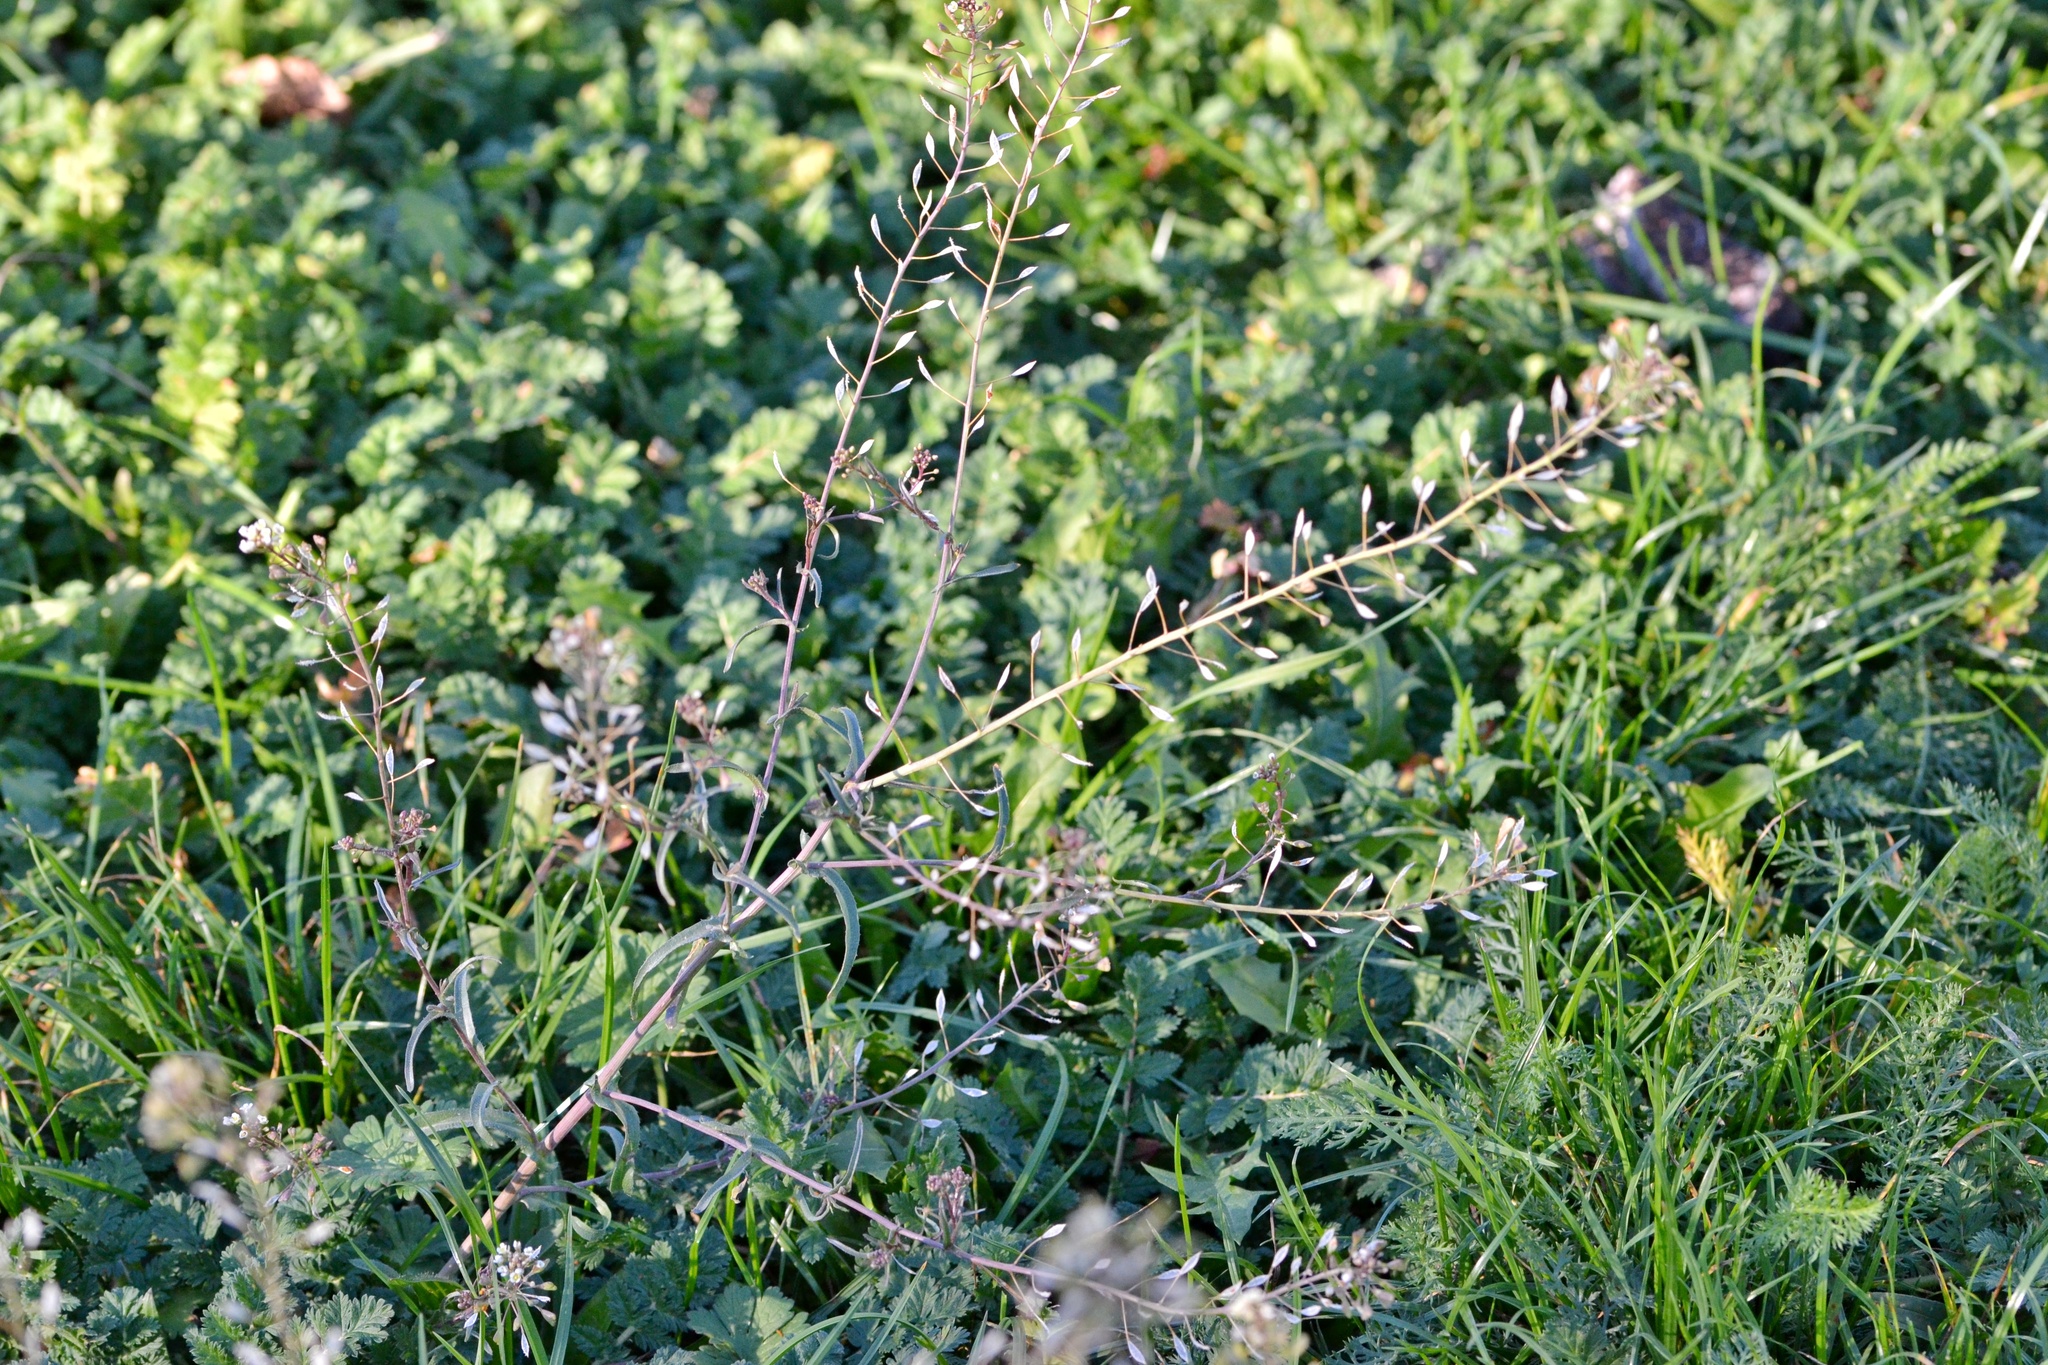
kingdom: Plantae
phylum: Tracheophyta
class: Magnoliopsida
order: Brassicales
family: Brassicaceae
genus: Capsella
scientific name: Capsella bursa-pastoris
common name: Shepherd's purse
